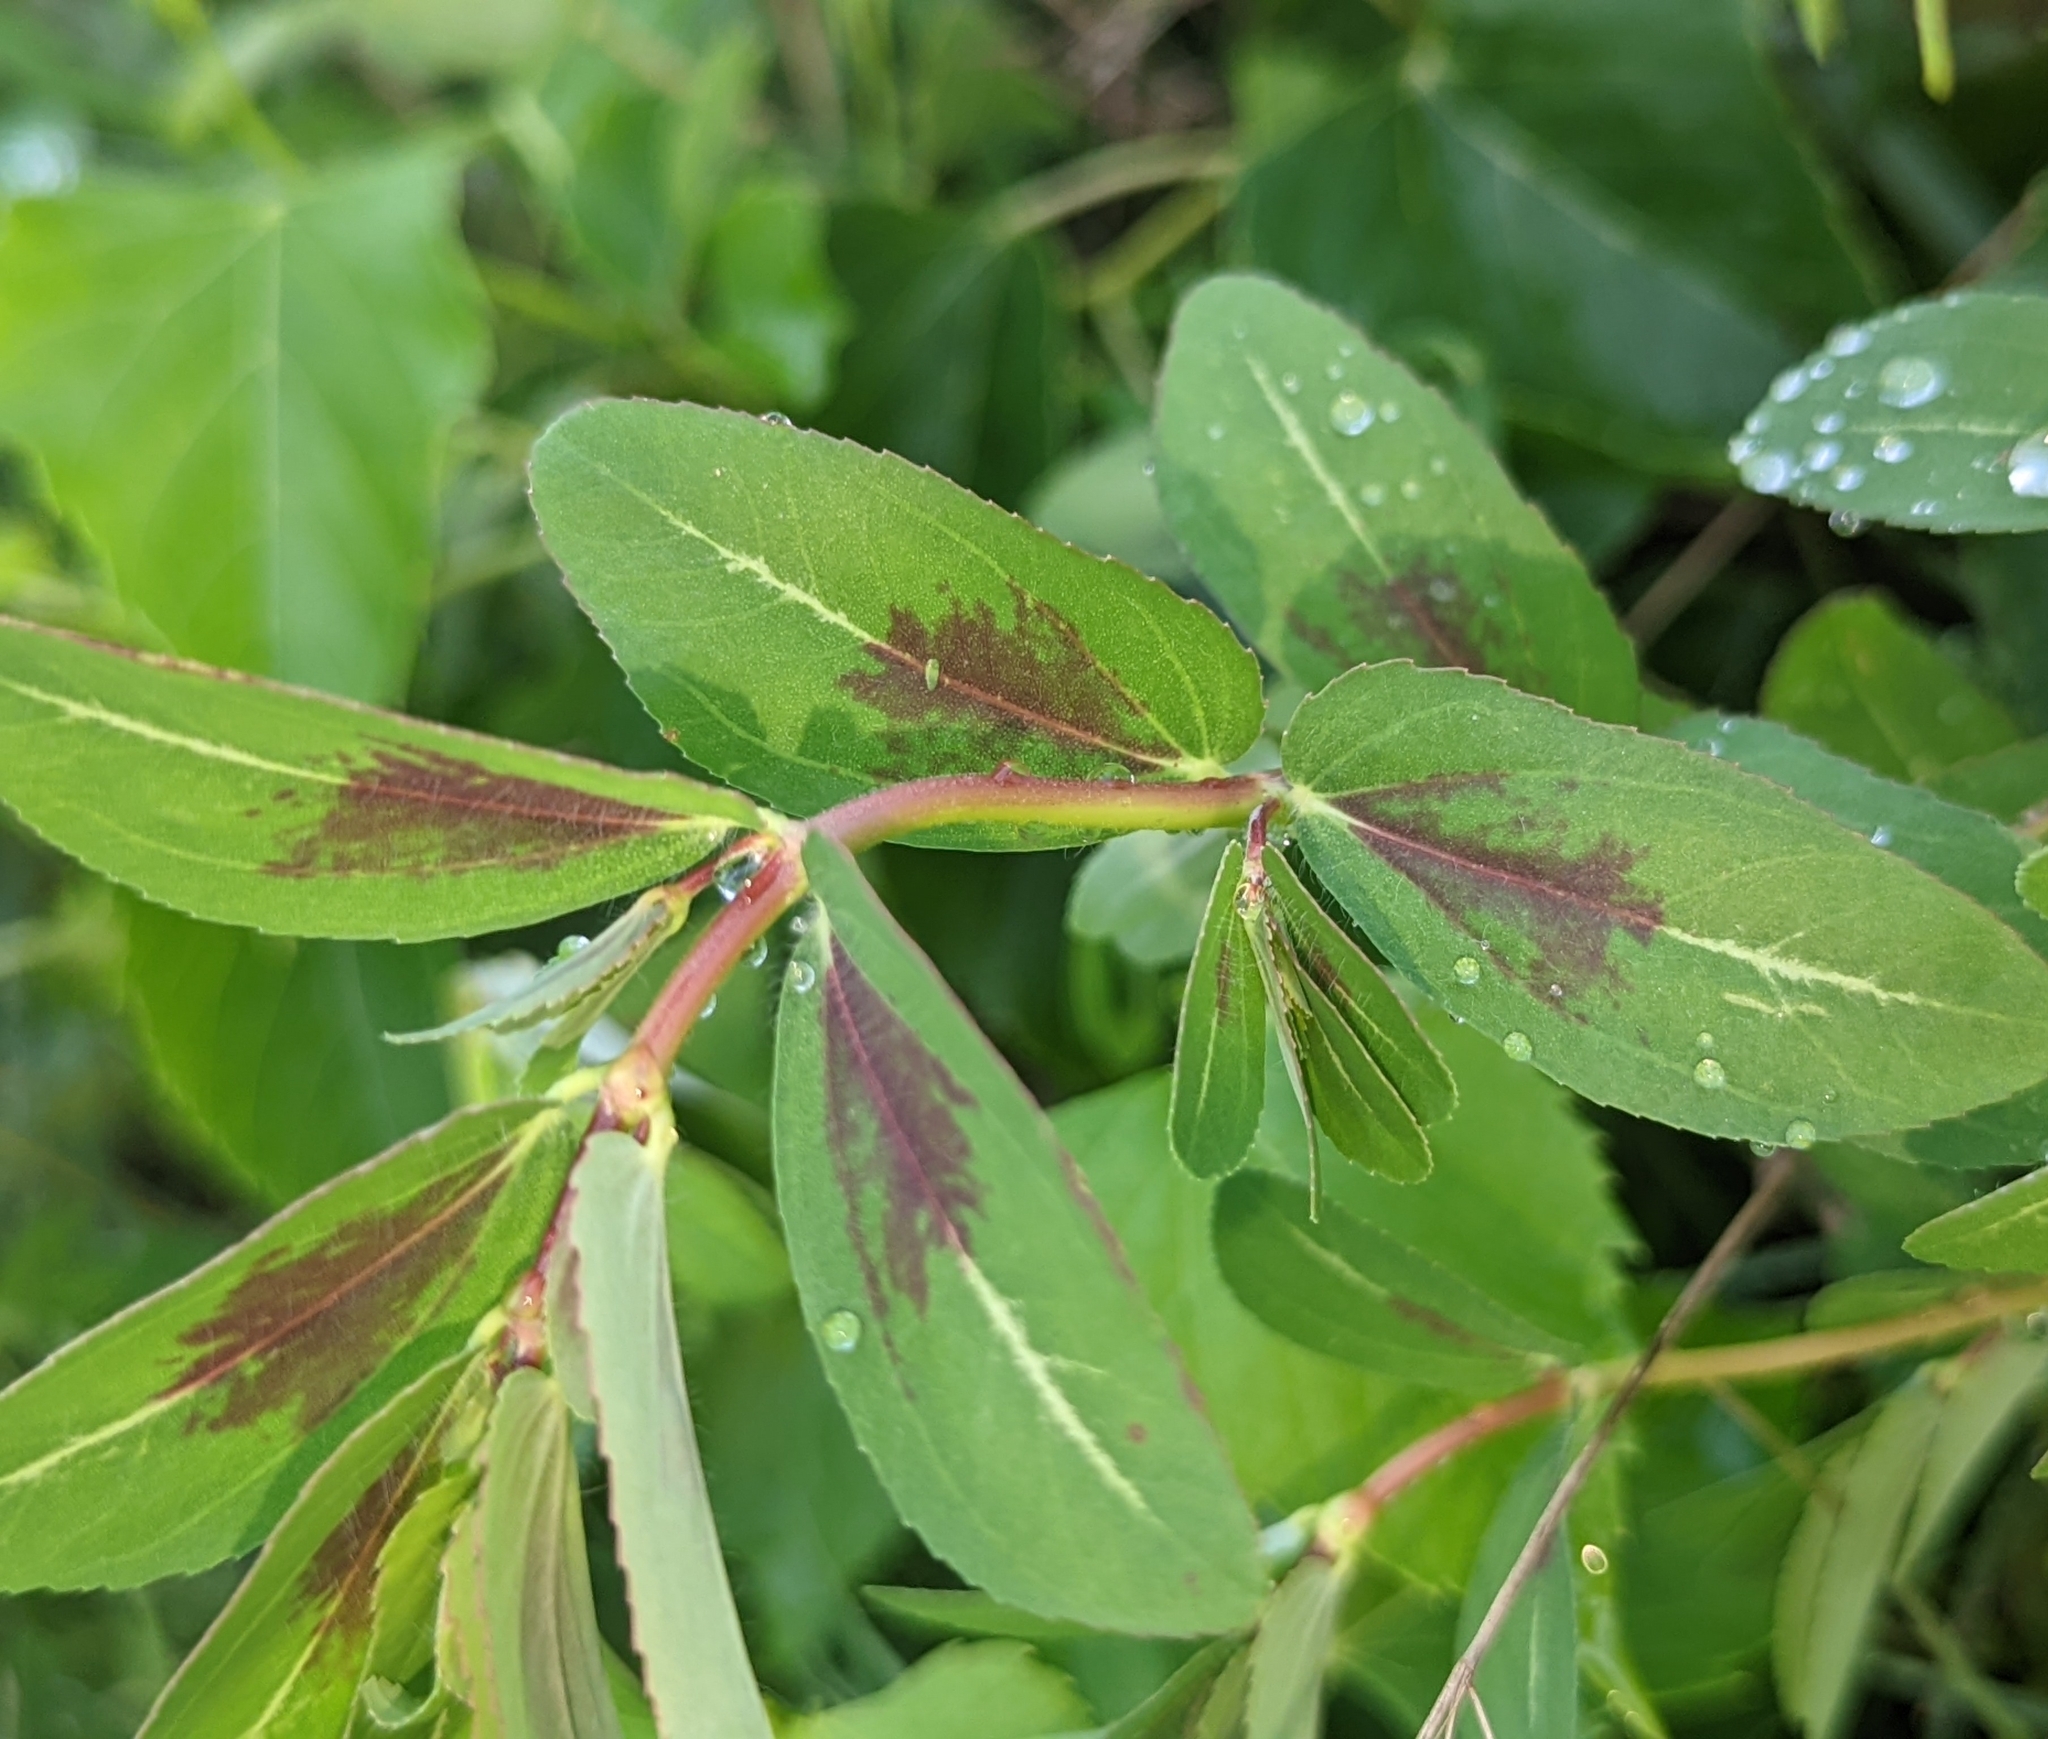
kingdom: Plantae
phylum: Tracheophyta
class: Magnoliopsida
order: Malpighiales
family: Euphorbiaceae
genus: Euphorbia
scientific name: Euphorbia nutans
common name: Eyebane
